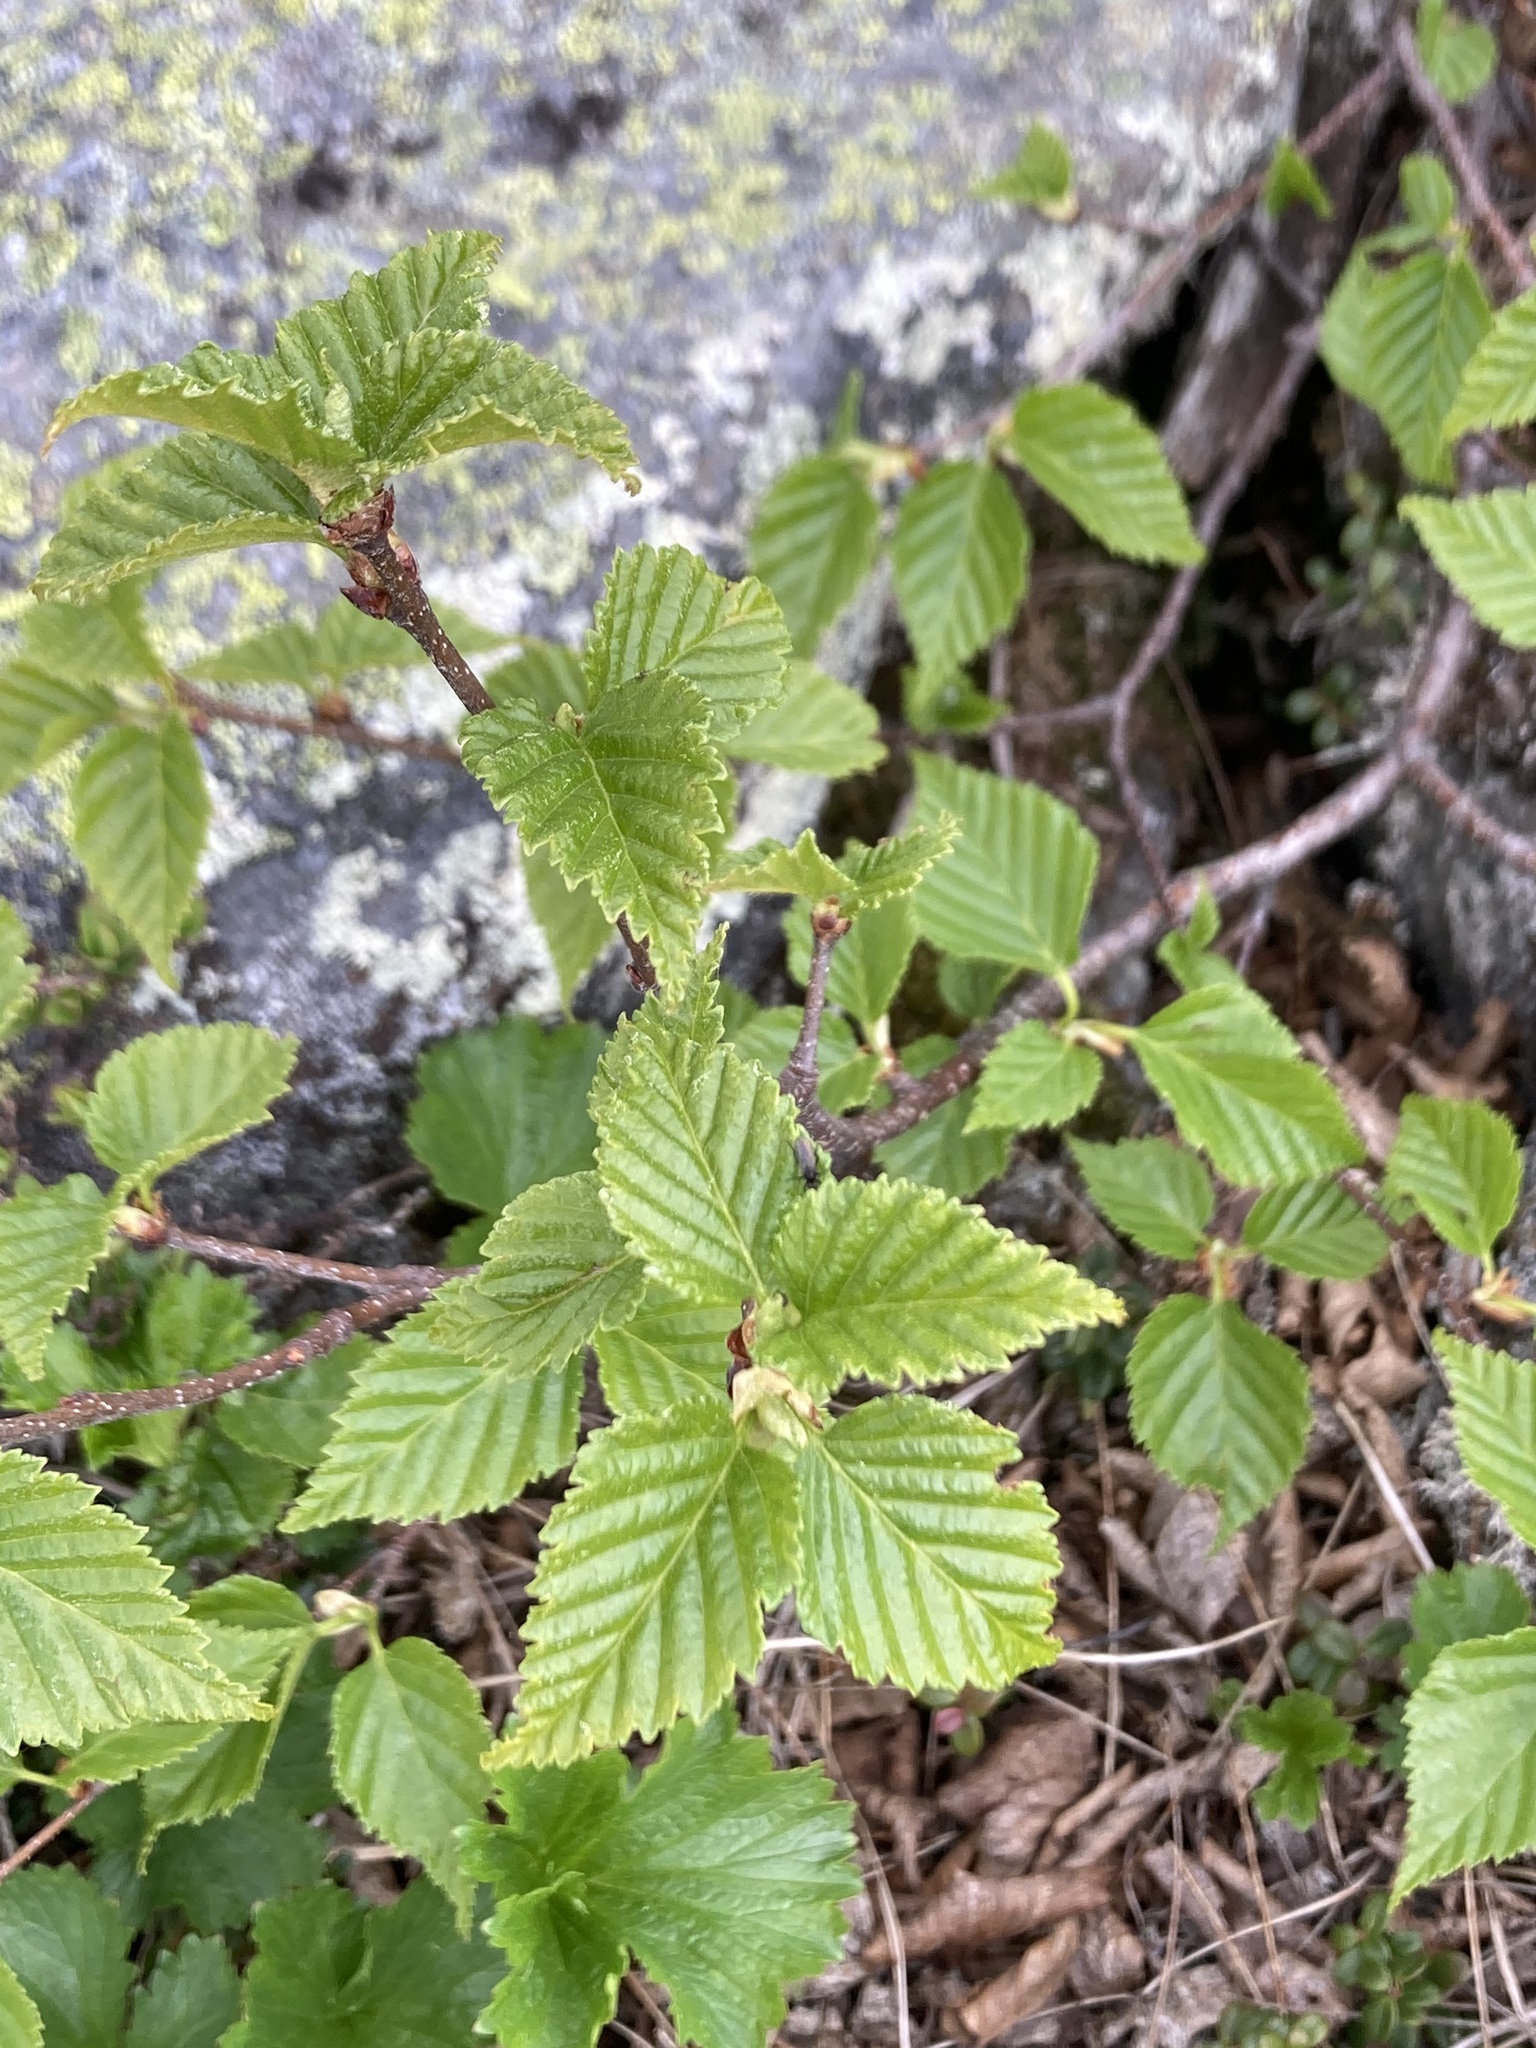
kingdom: Plantae
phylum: Tracheophyta
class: Magnoliopsida
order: Fagales
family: Betulaceae
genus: Betula
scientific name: Betula minor
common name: Dwarf birch
